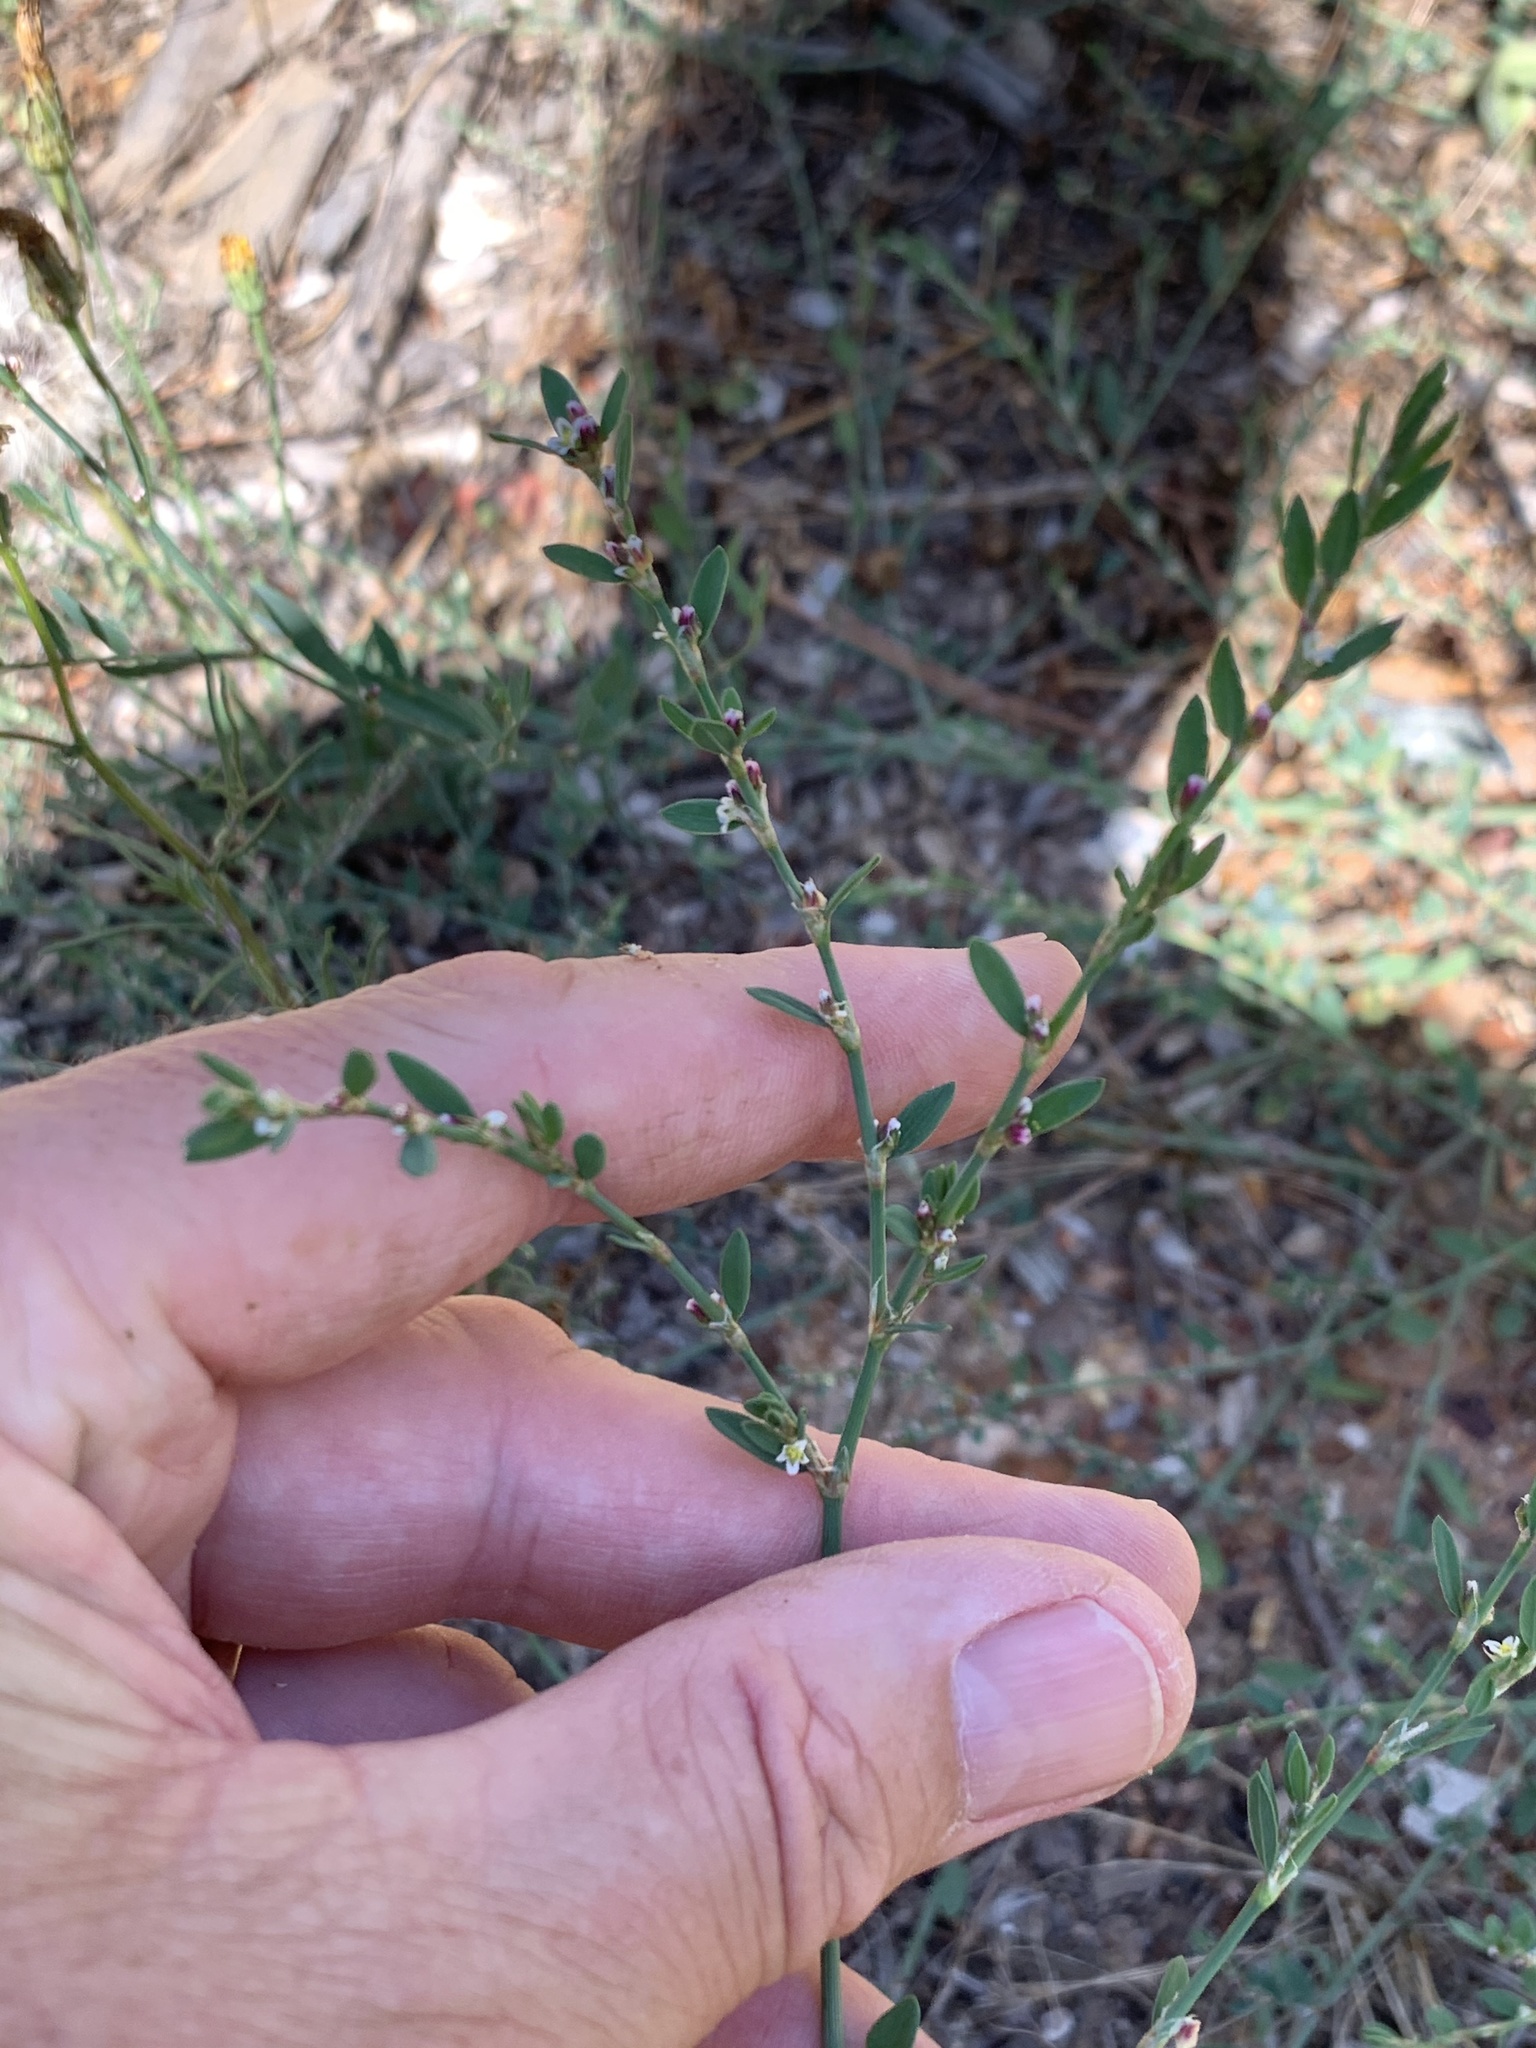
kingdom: Plantae
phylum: Tracheophyta
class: Magnoliopsida
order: Caryophyllales
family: Polygonaceae
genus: Polygonum
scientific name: Polygonum aviculare
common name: Prostrate knotweed
